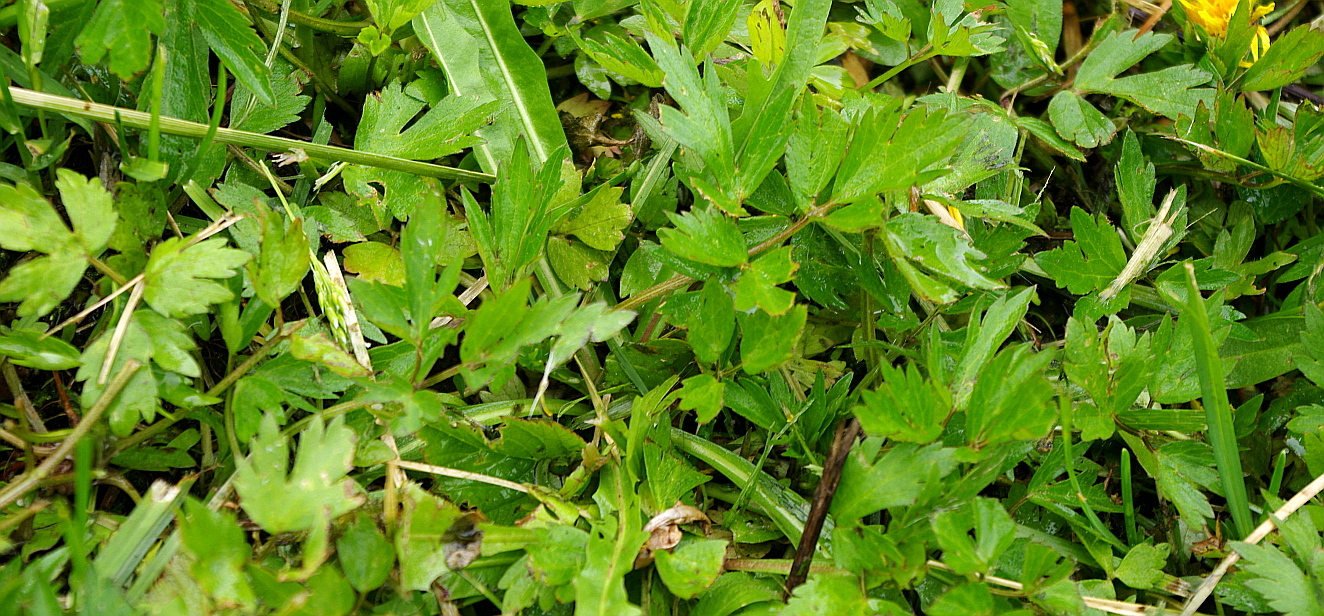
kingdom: Plantae
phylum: Tracheophyta
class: Magnoliopsida
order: Ranunculales
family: Ranunculaceae
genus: Ranunculus
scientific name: Ranunculus repens
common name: Creeping buttercup
